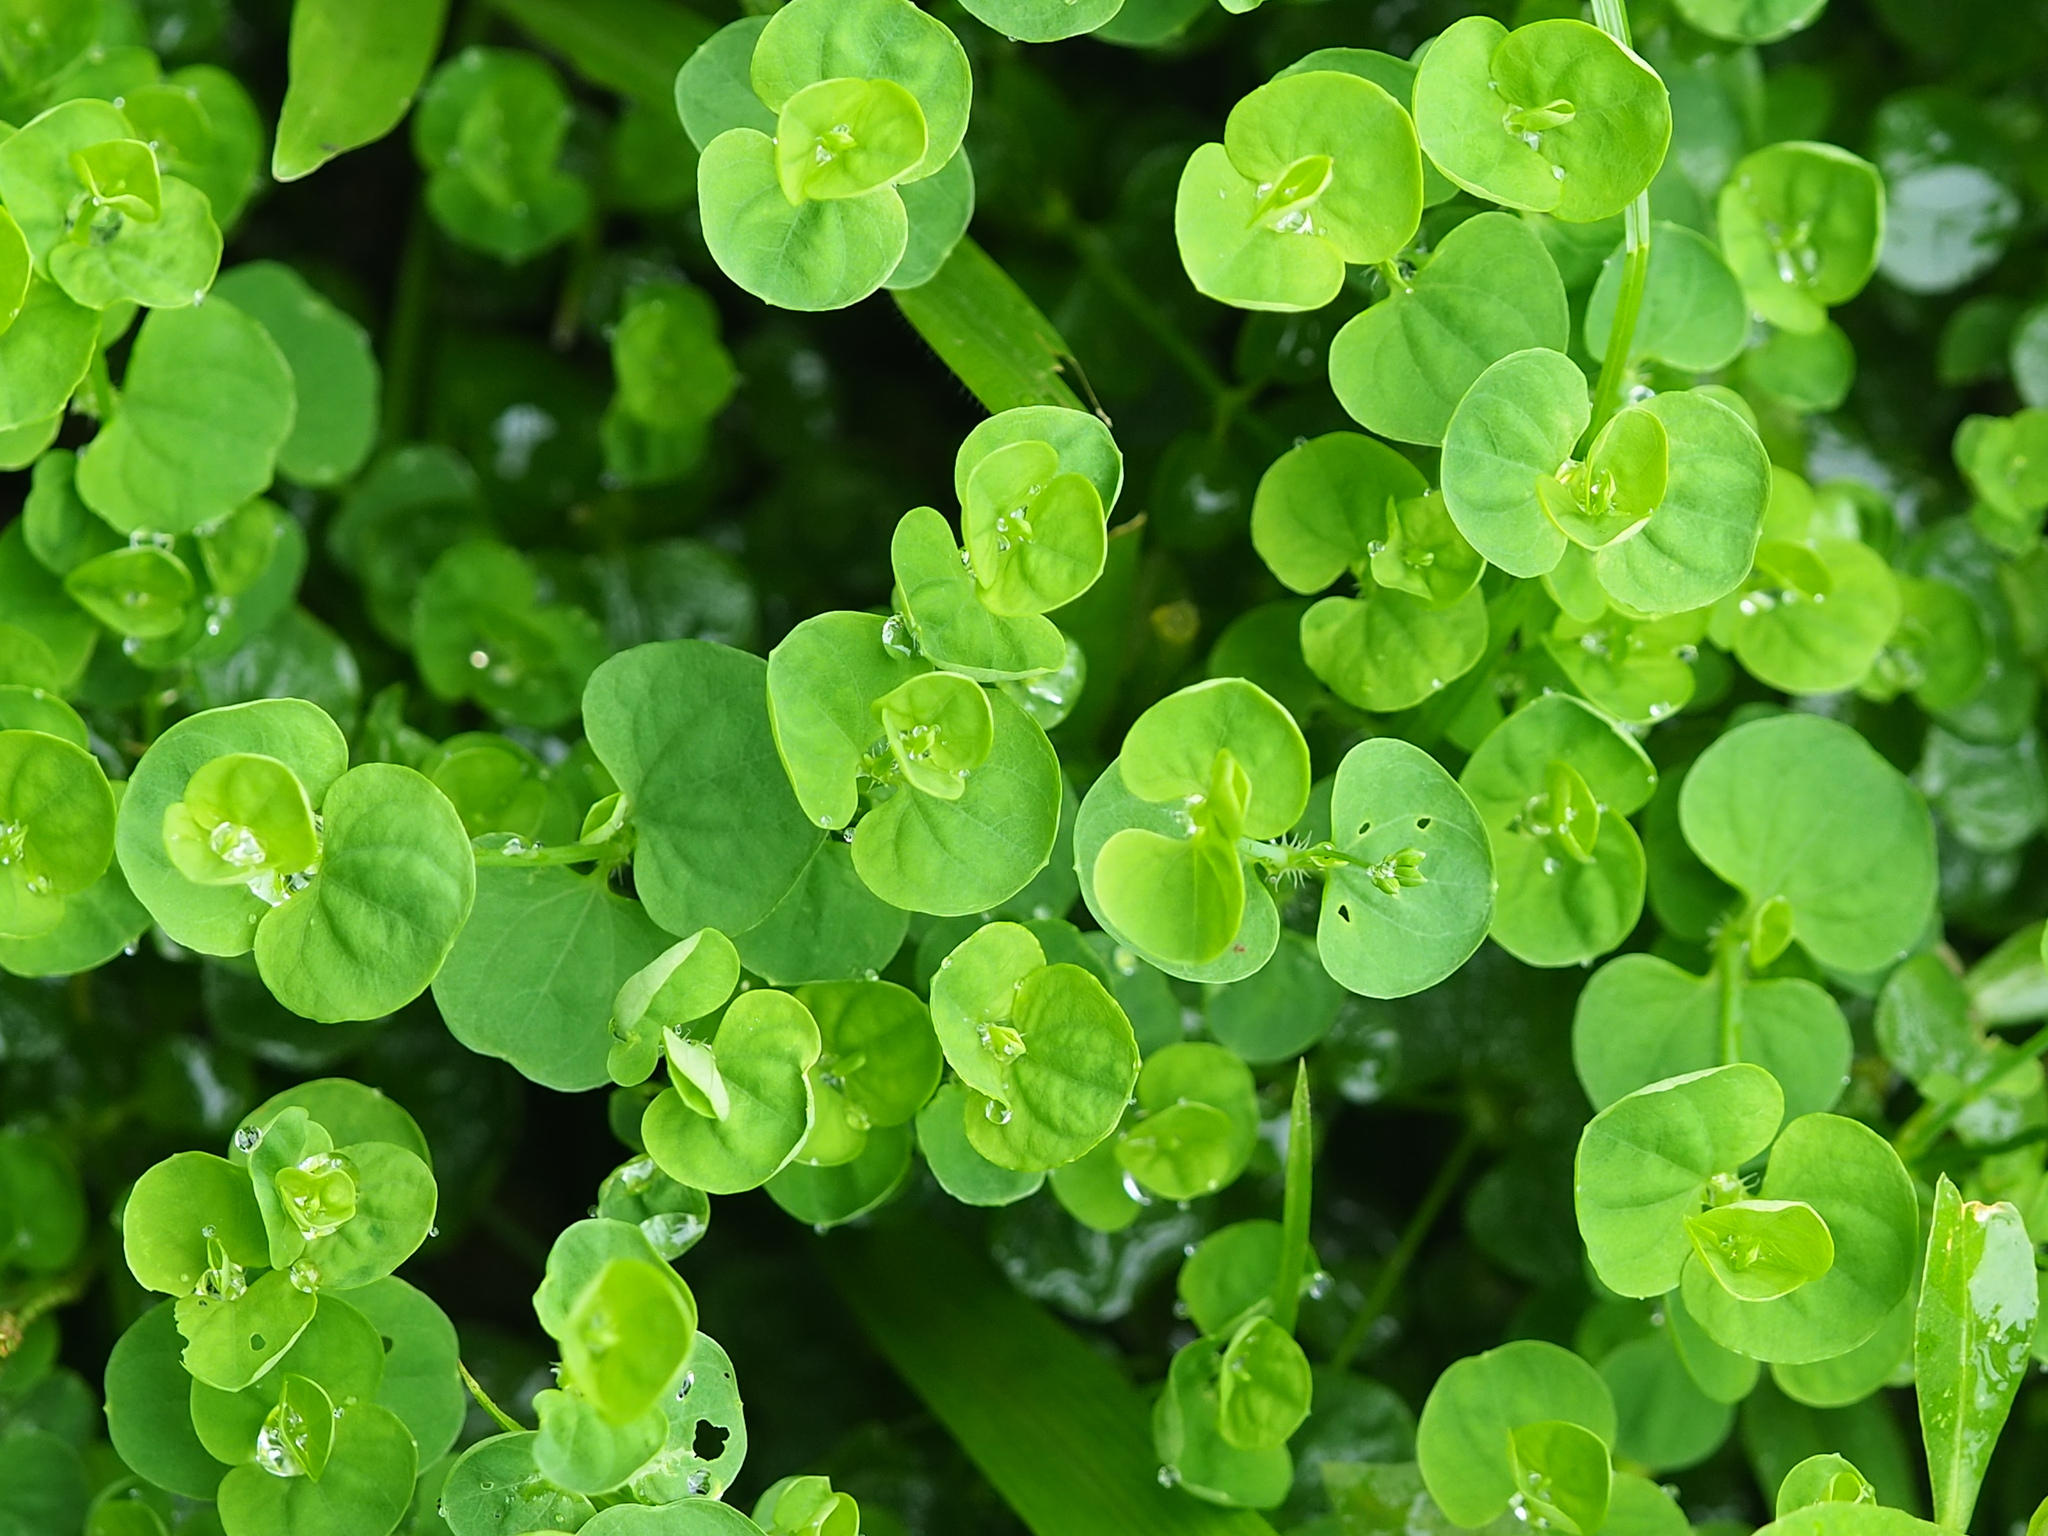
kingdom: Plantae
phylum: Tracheophyta
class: Magnoliopsida
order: Caryophyllales
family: Caryophyllaceae
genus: Drymaria
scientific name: Drymaria cordata
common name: Whitesnow
